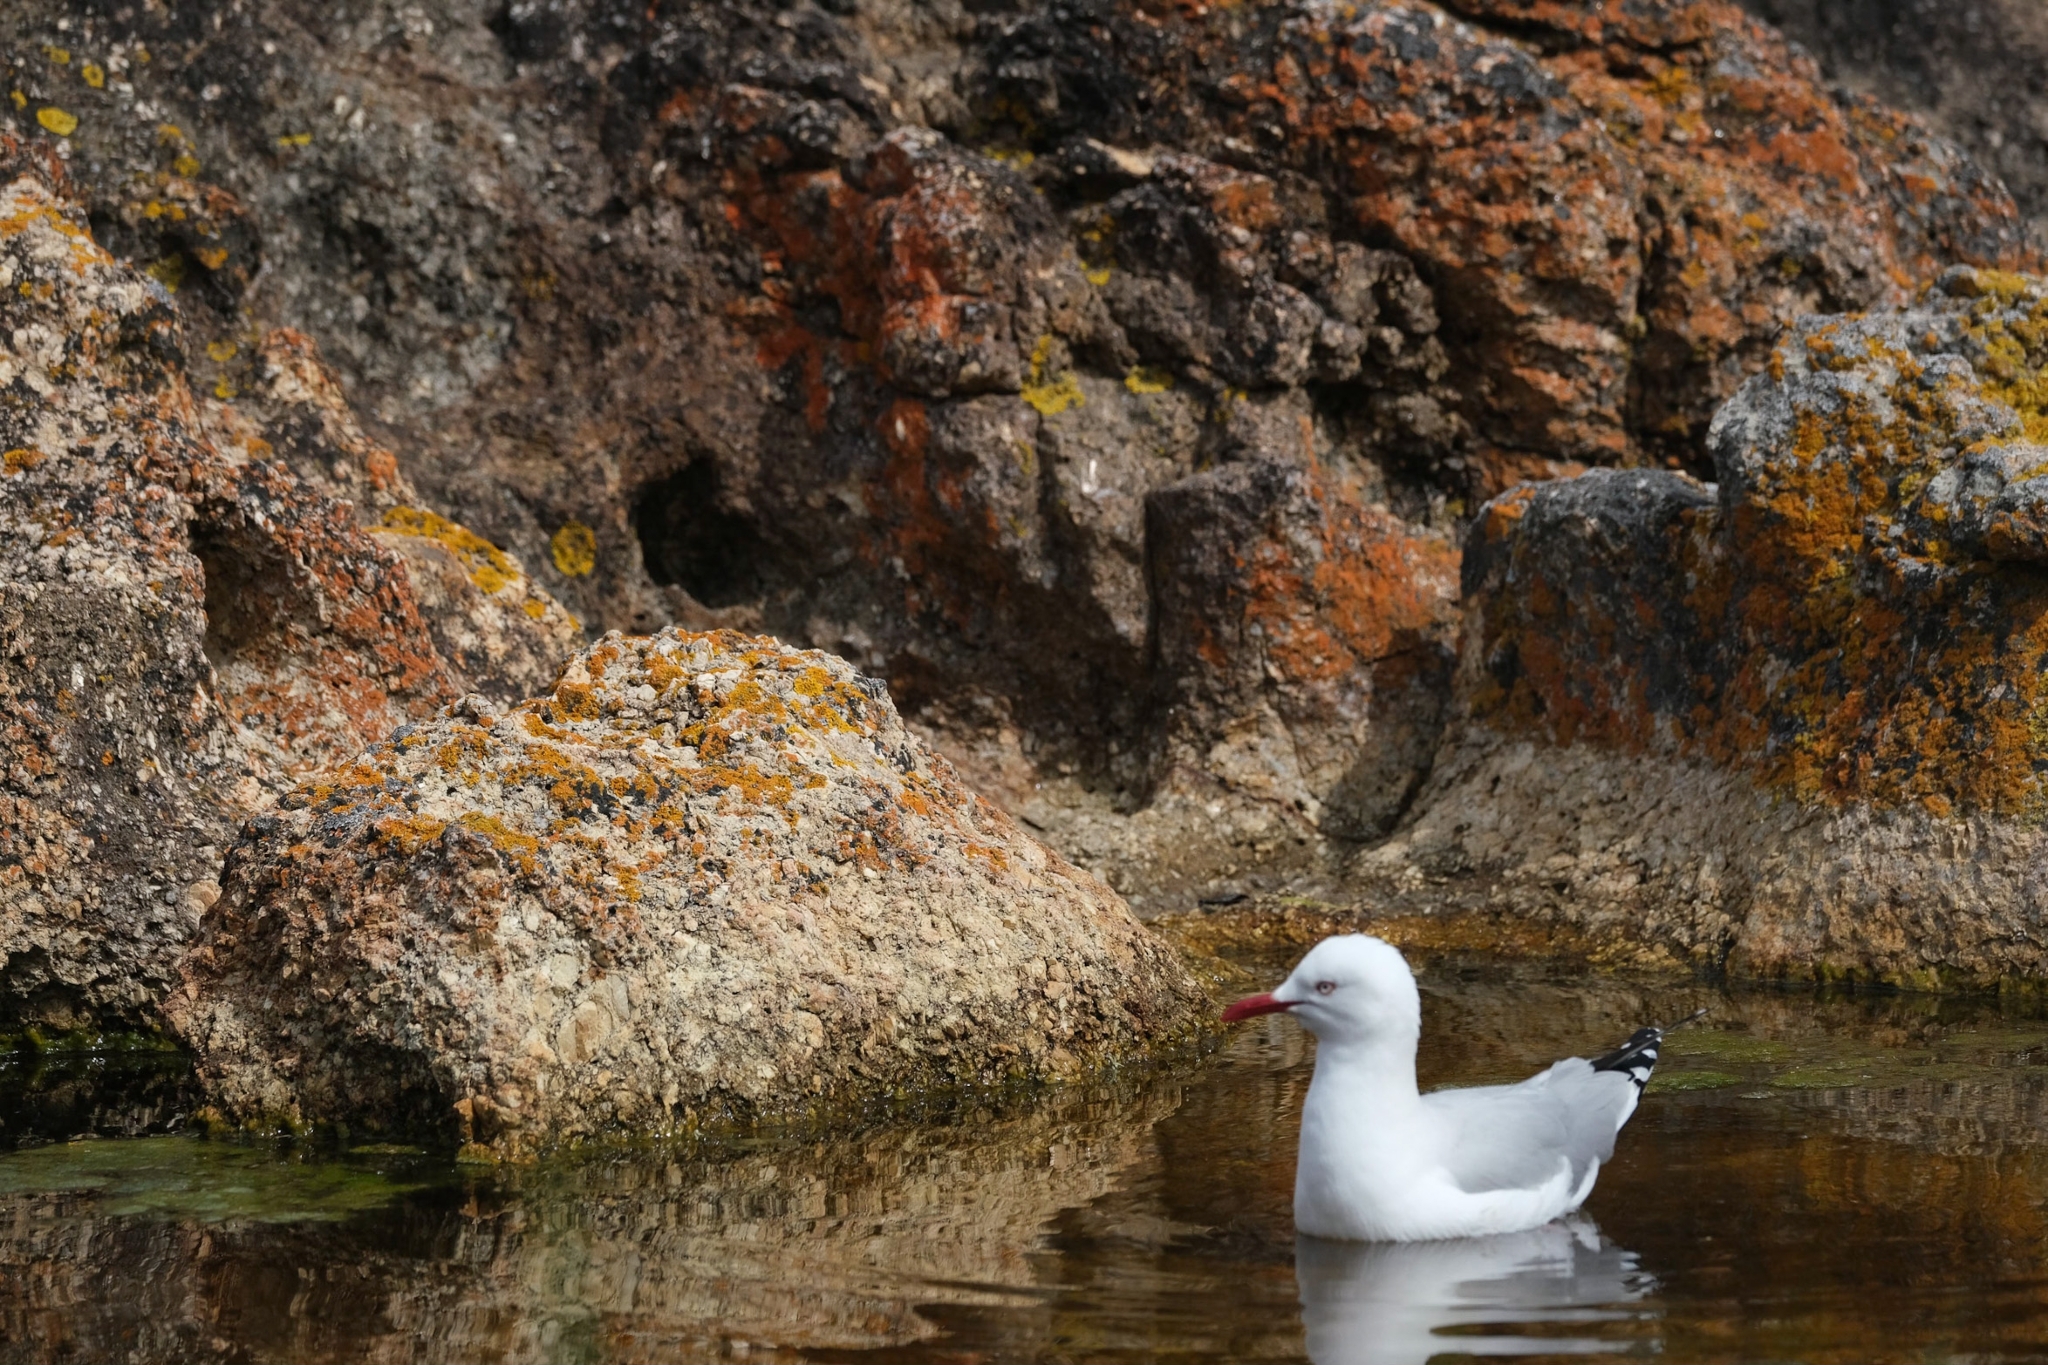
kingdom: Animalia
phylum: Chordata
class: Aves
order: Charadriiformes
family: Laridae
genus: Chroicocephalus
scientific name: Chroicocephalus novaehollandiae
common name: Silver gull
